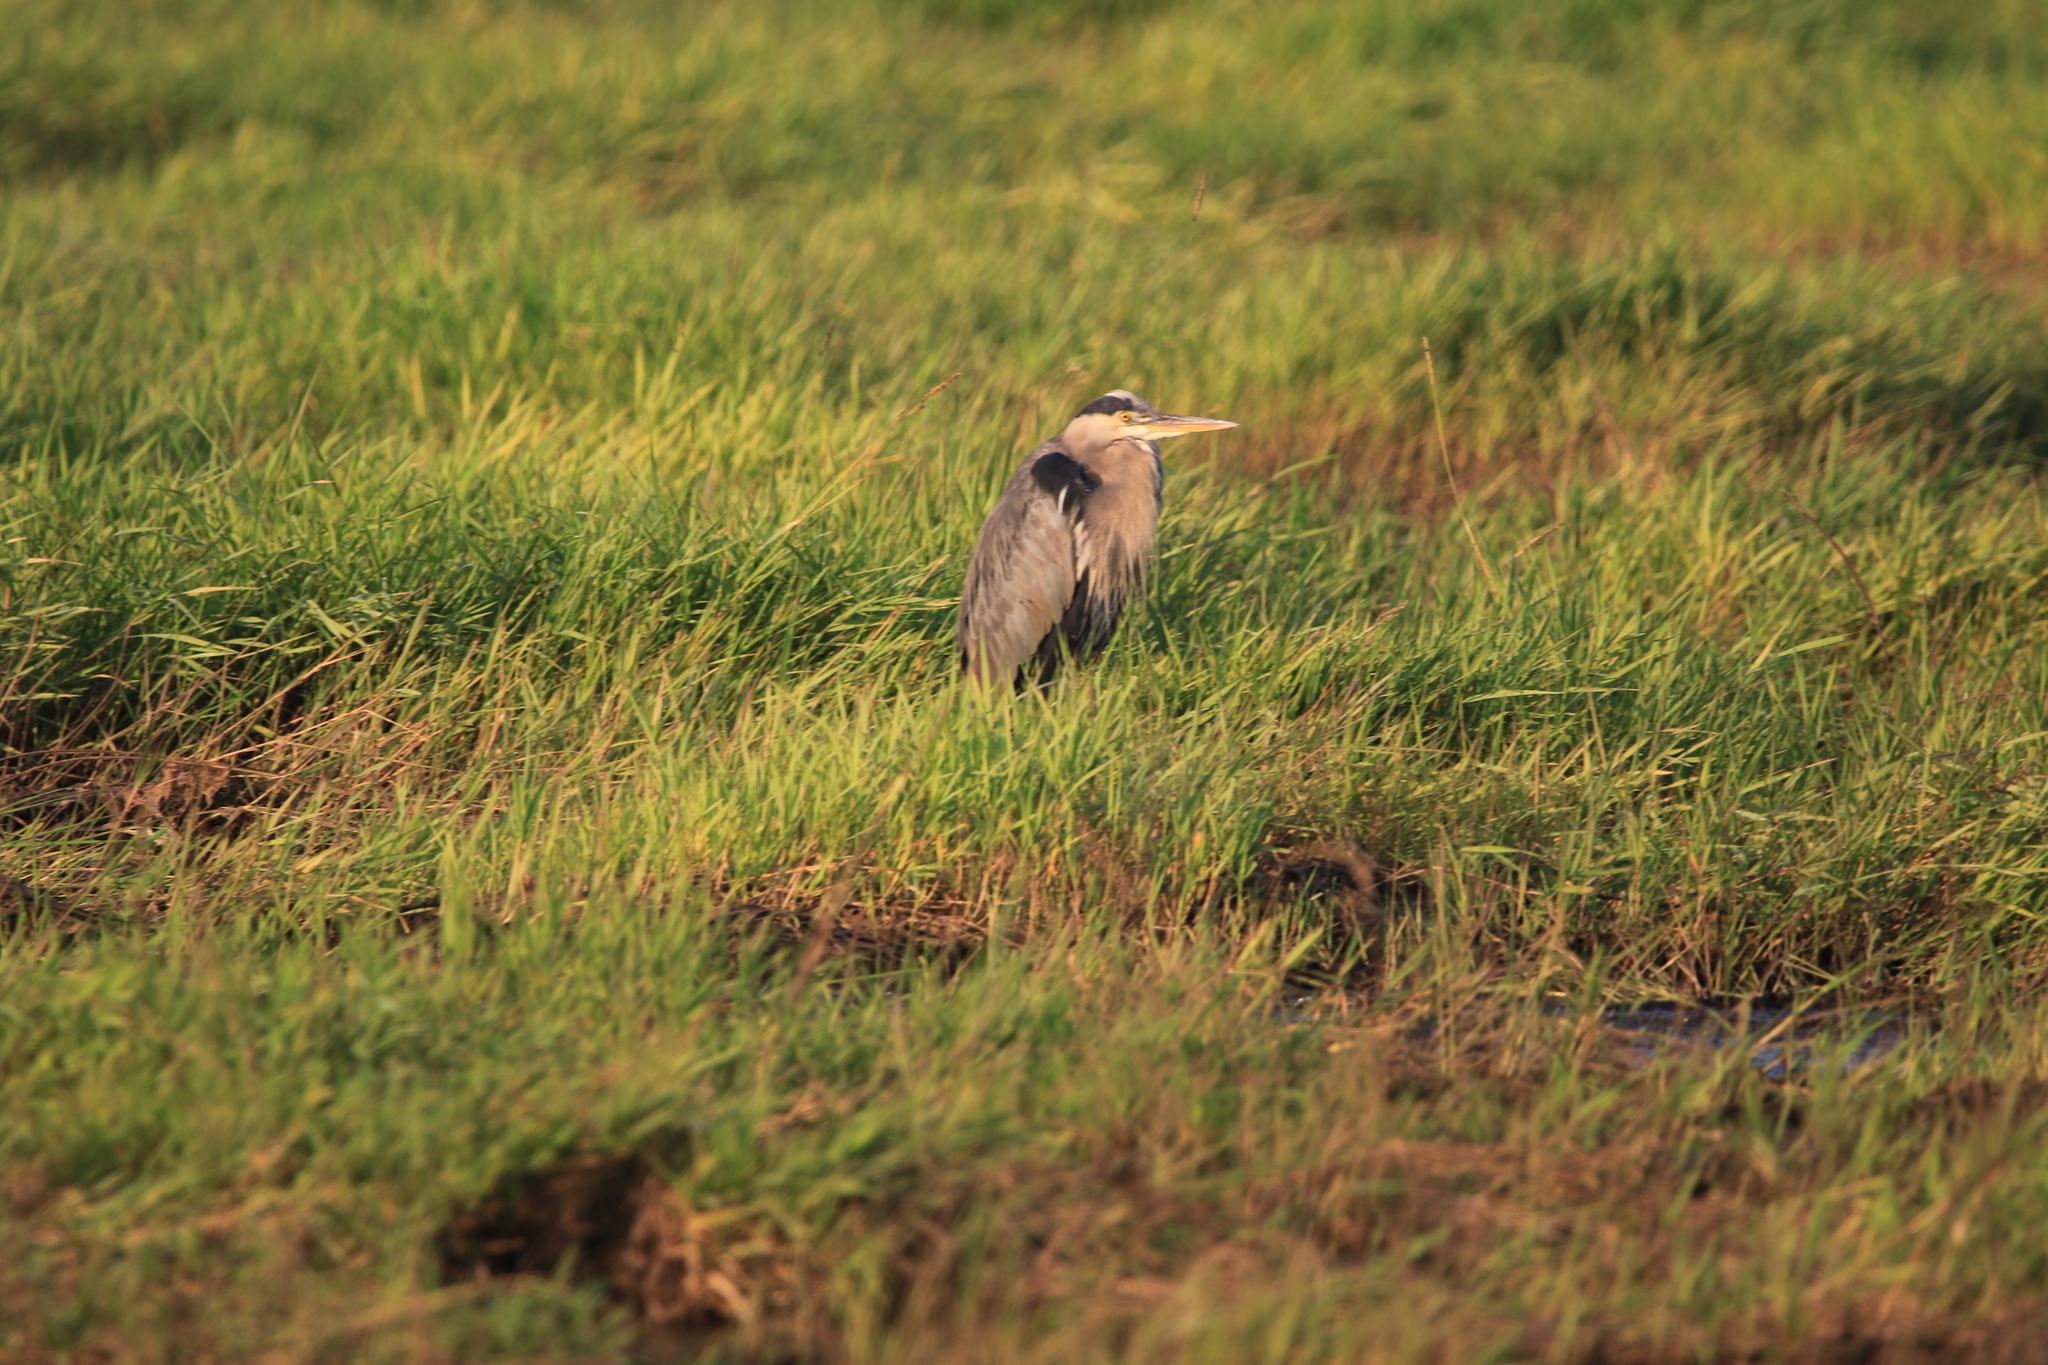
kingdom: Animalia
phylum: Chordata
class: Aves
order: Pelecaniformes
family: Ardeidae
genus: Ardea
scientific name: Ardea herodias
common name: Great blue heron
